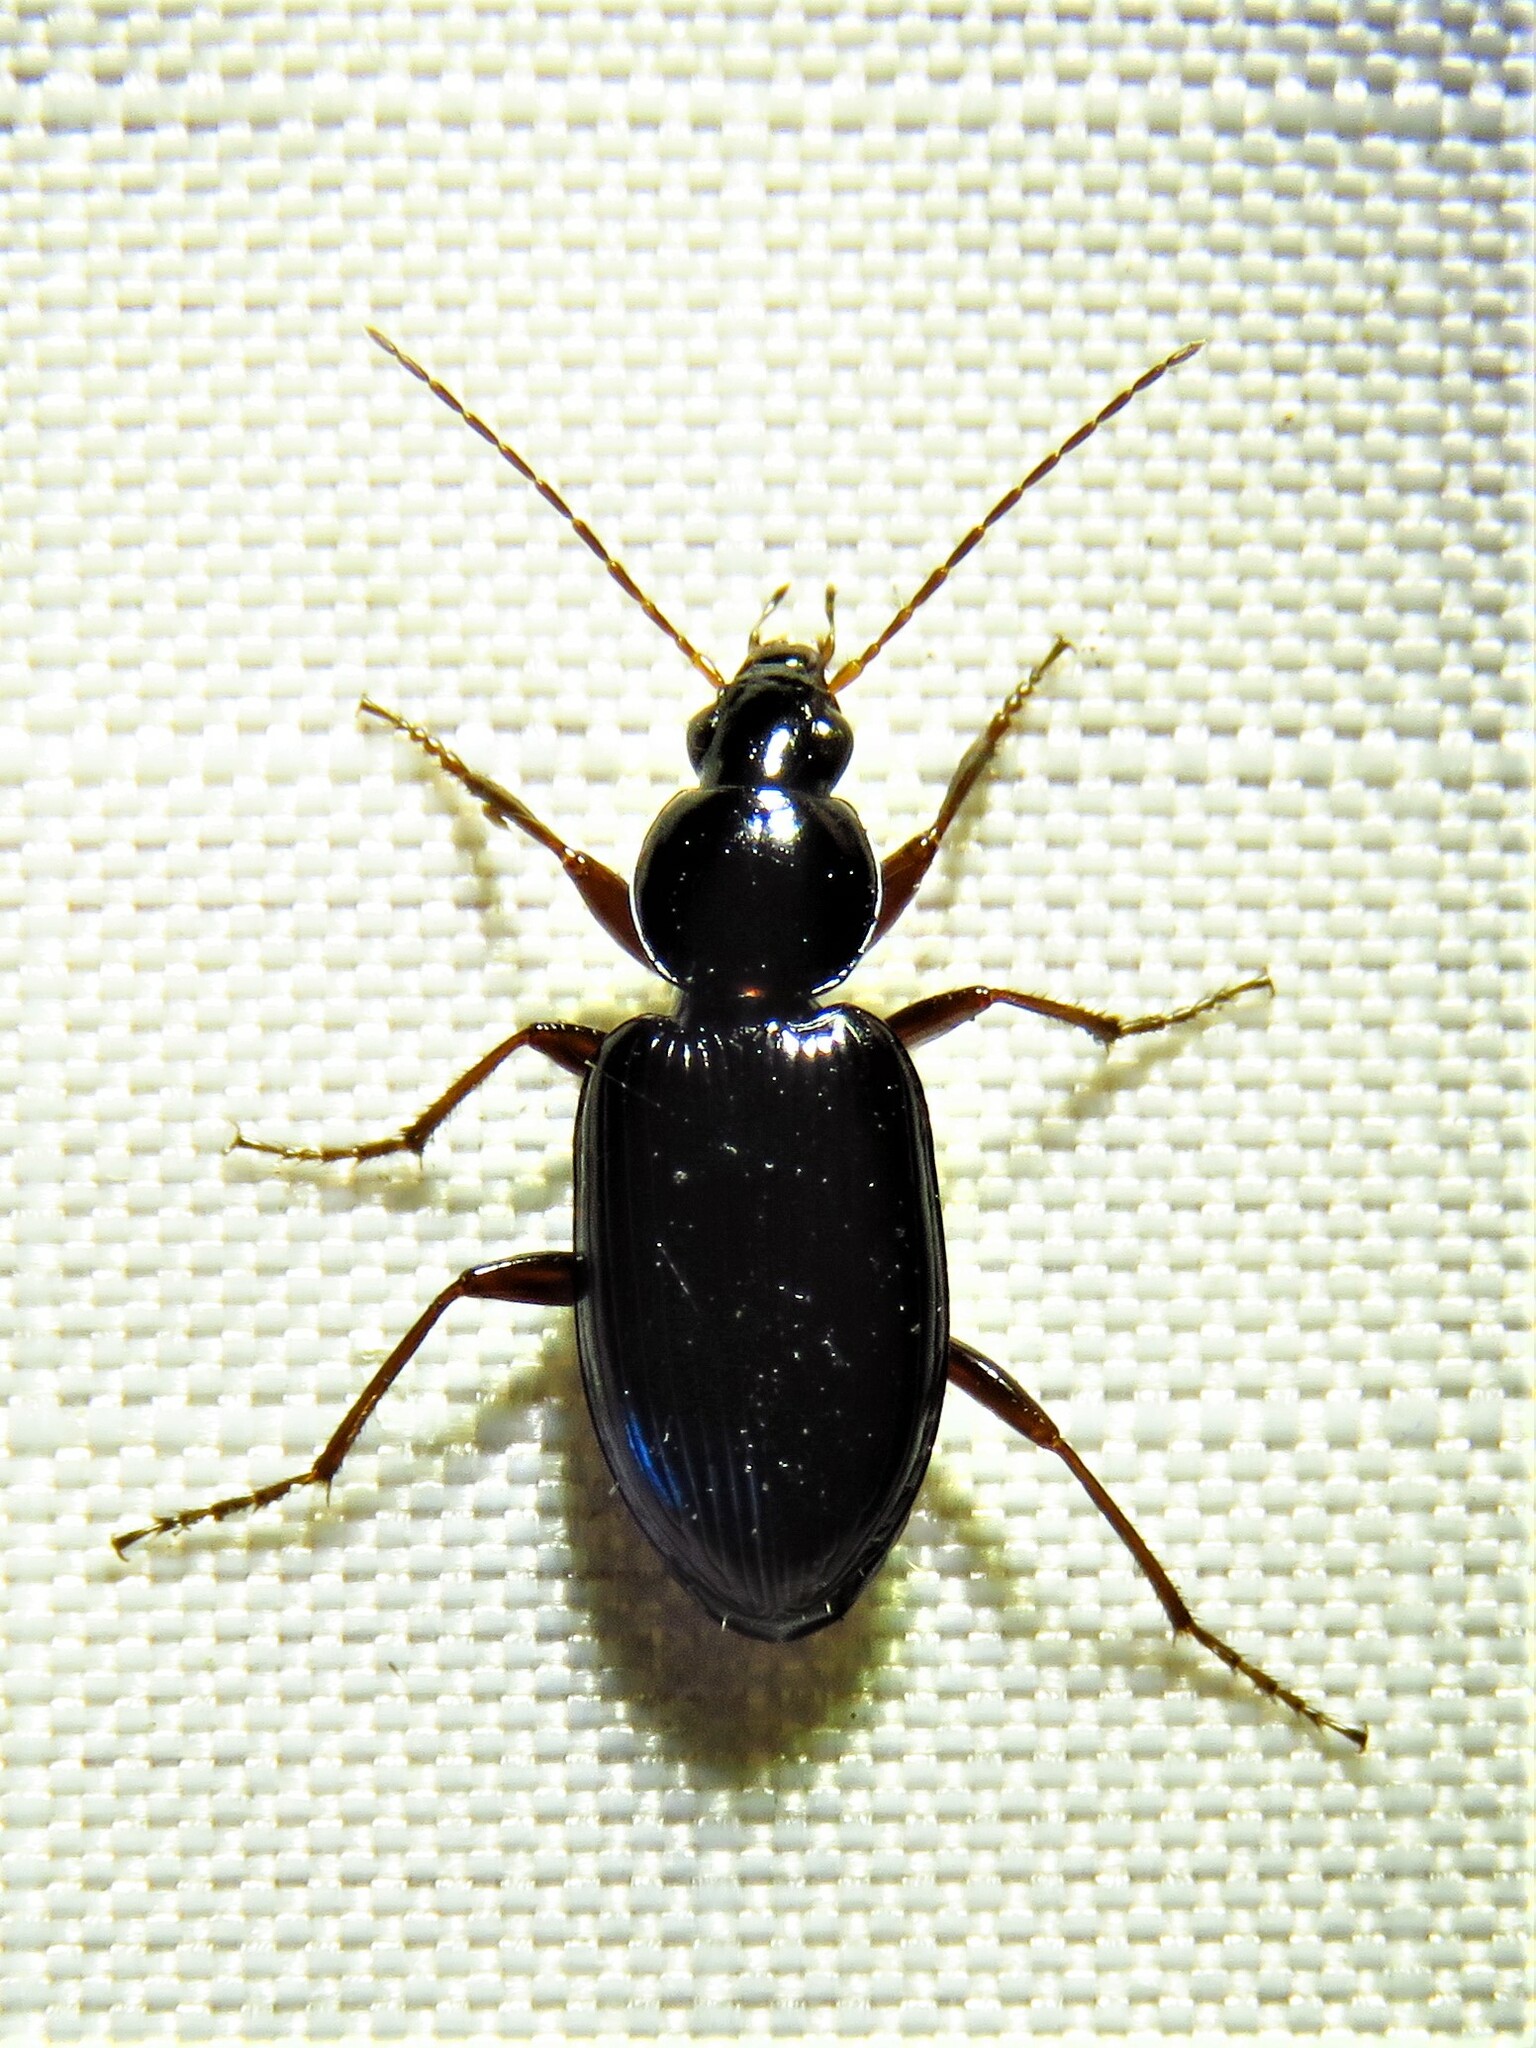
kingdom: Animalia
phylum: Arthropoda
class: Insecta
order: Coleoptera
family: Carabidae
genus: Agonum
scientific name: Agonum punctiforme
